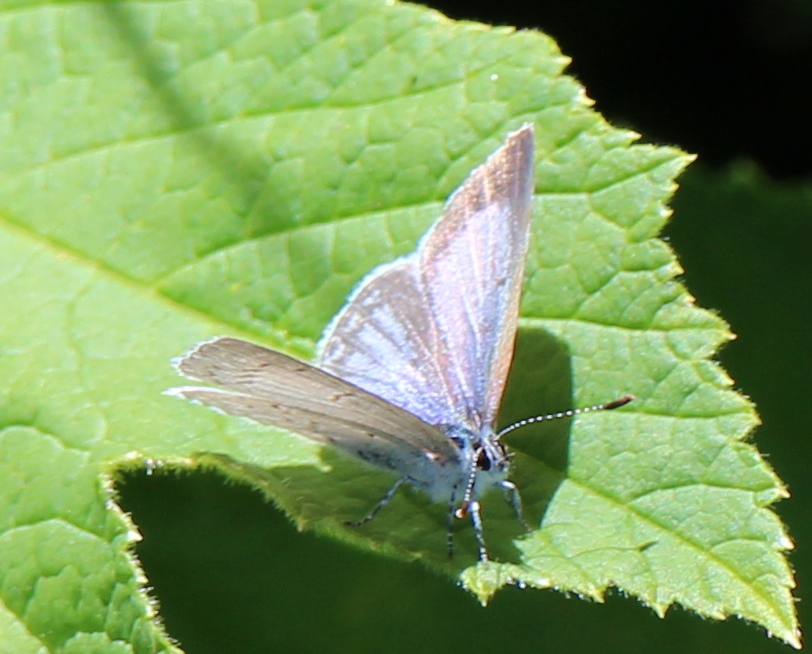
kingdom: Animalia
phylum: Arthropoda
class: Insecta
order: Lepidoptera
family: Lycaenidae
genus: Celastrina
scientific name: Celastrina ladon
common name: Spring azure
